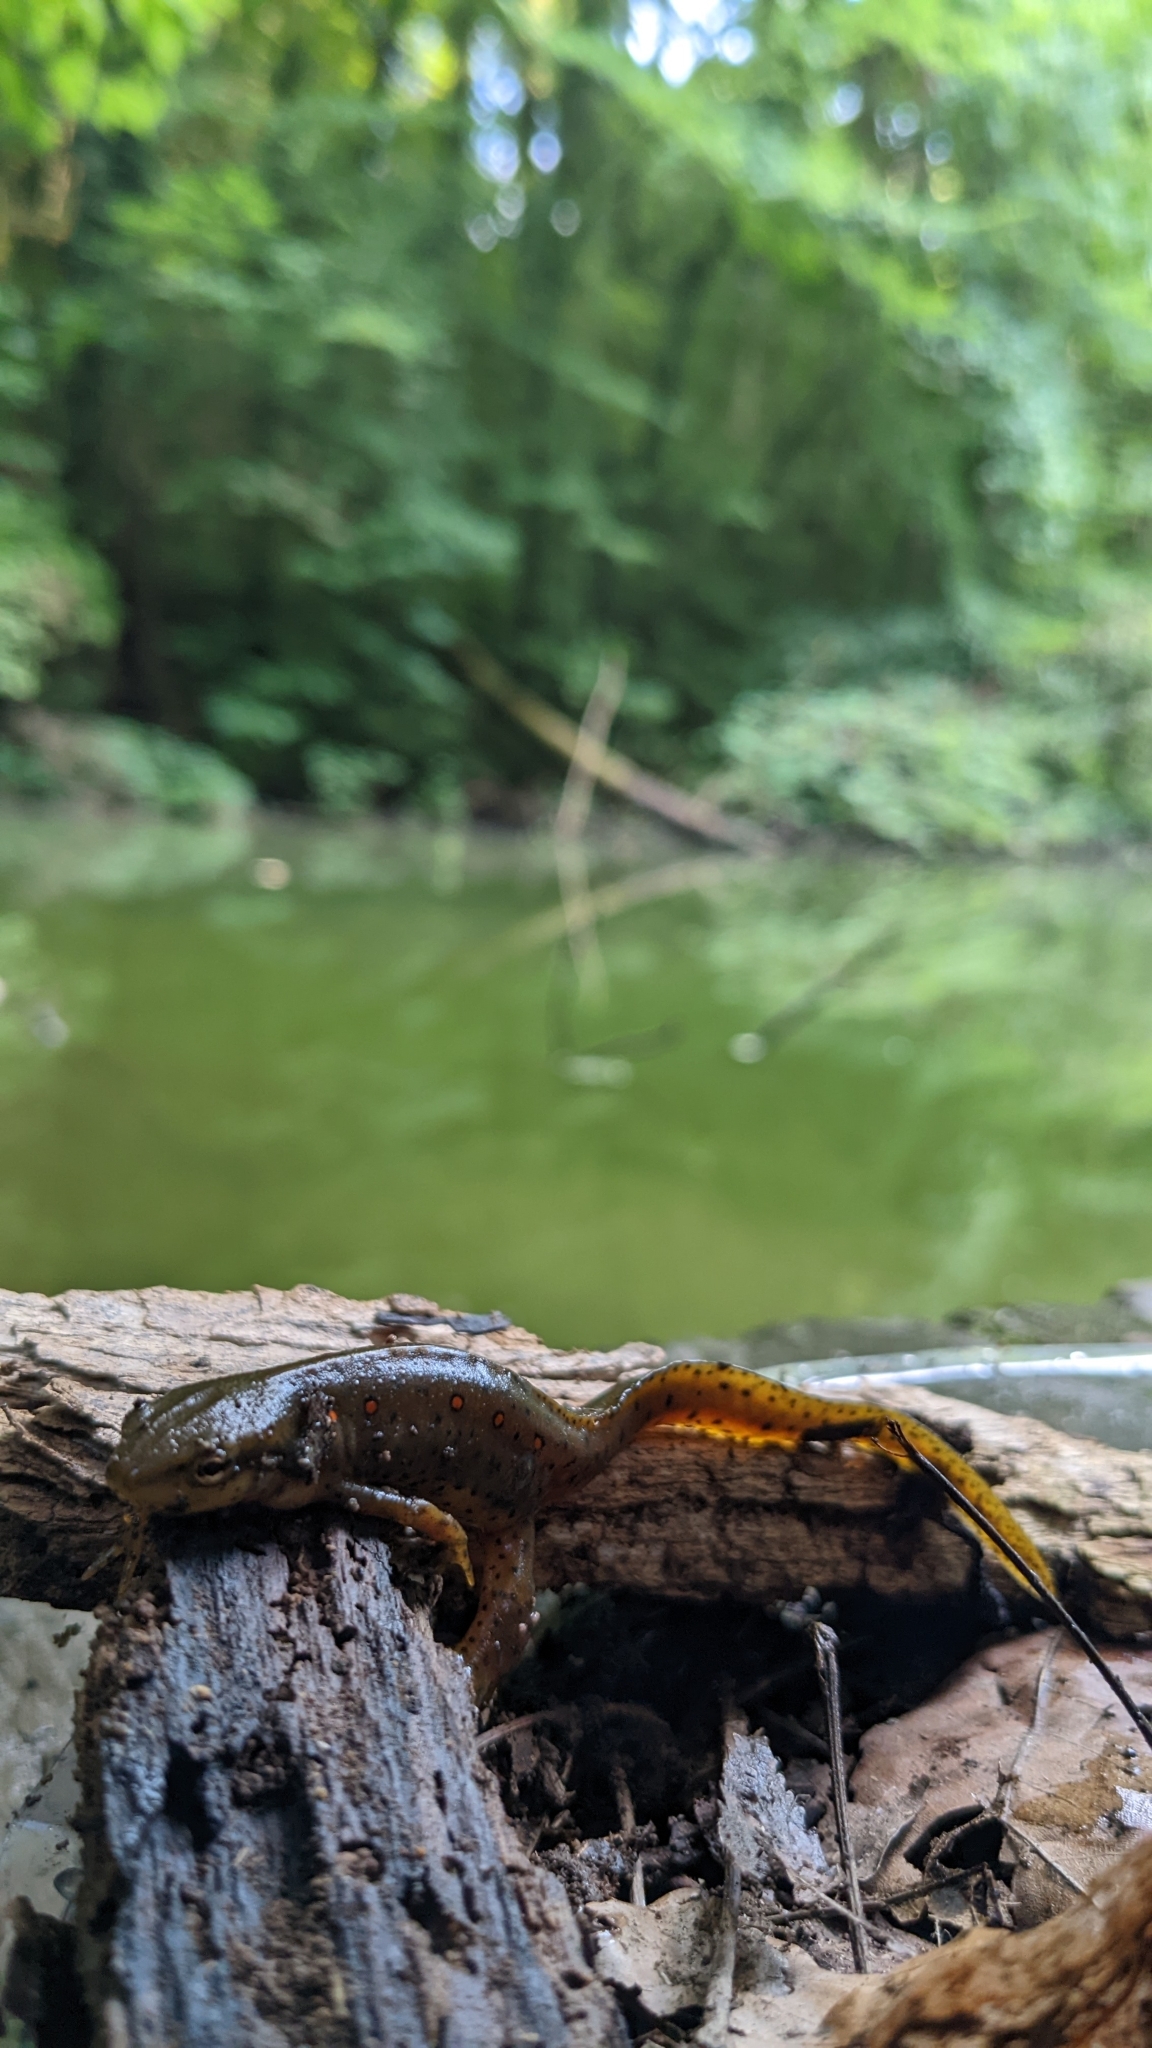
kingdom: Animalia
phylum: Chordata
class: Amphibia
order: Caudata
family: Salamandridae
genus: Notophthalmus
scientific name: Notophthalmus viridescens
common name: Eastern newt
